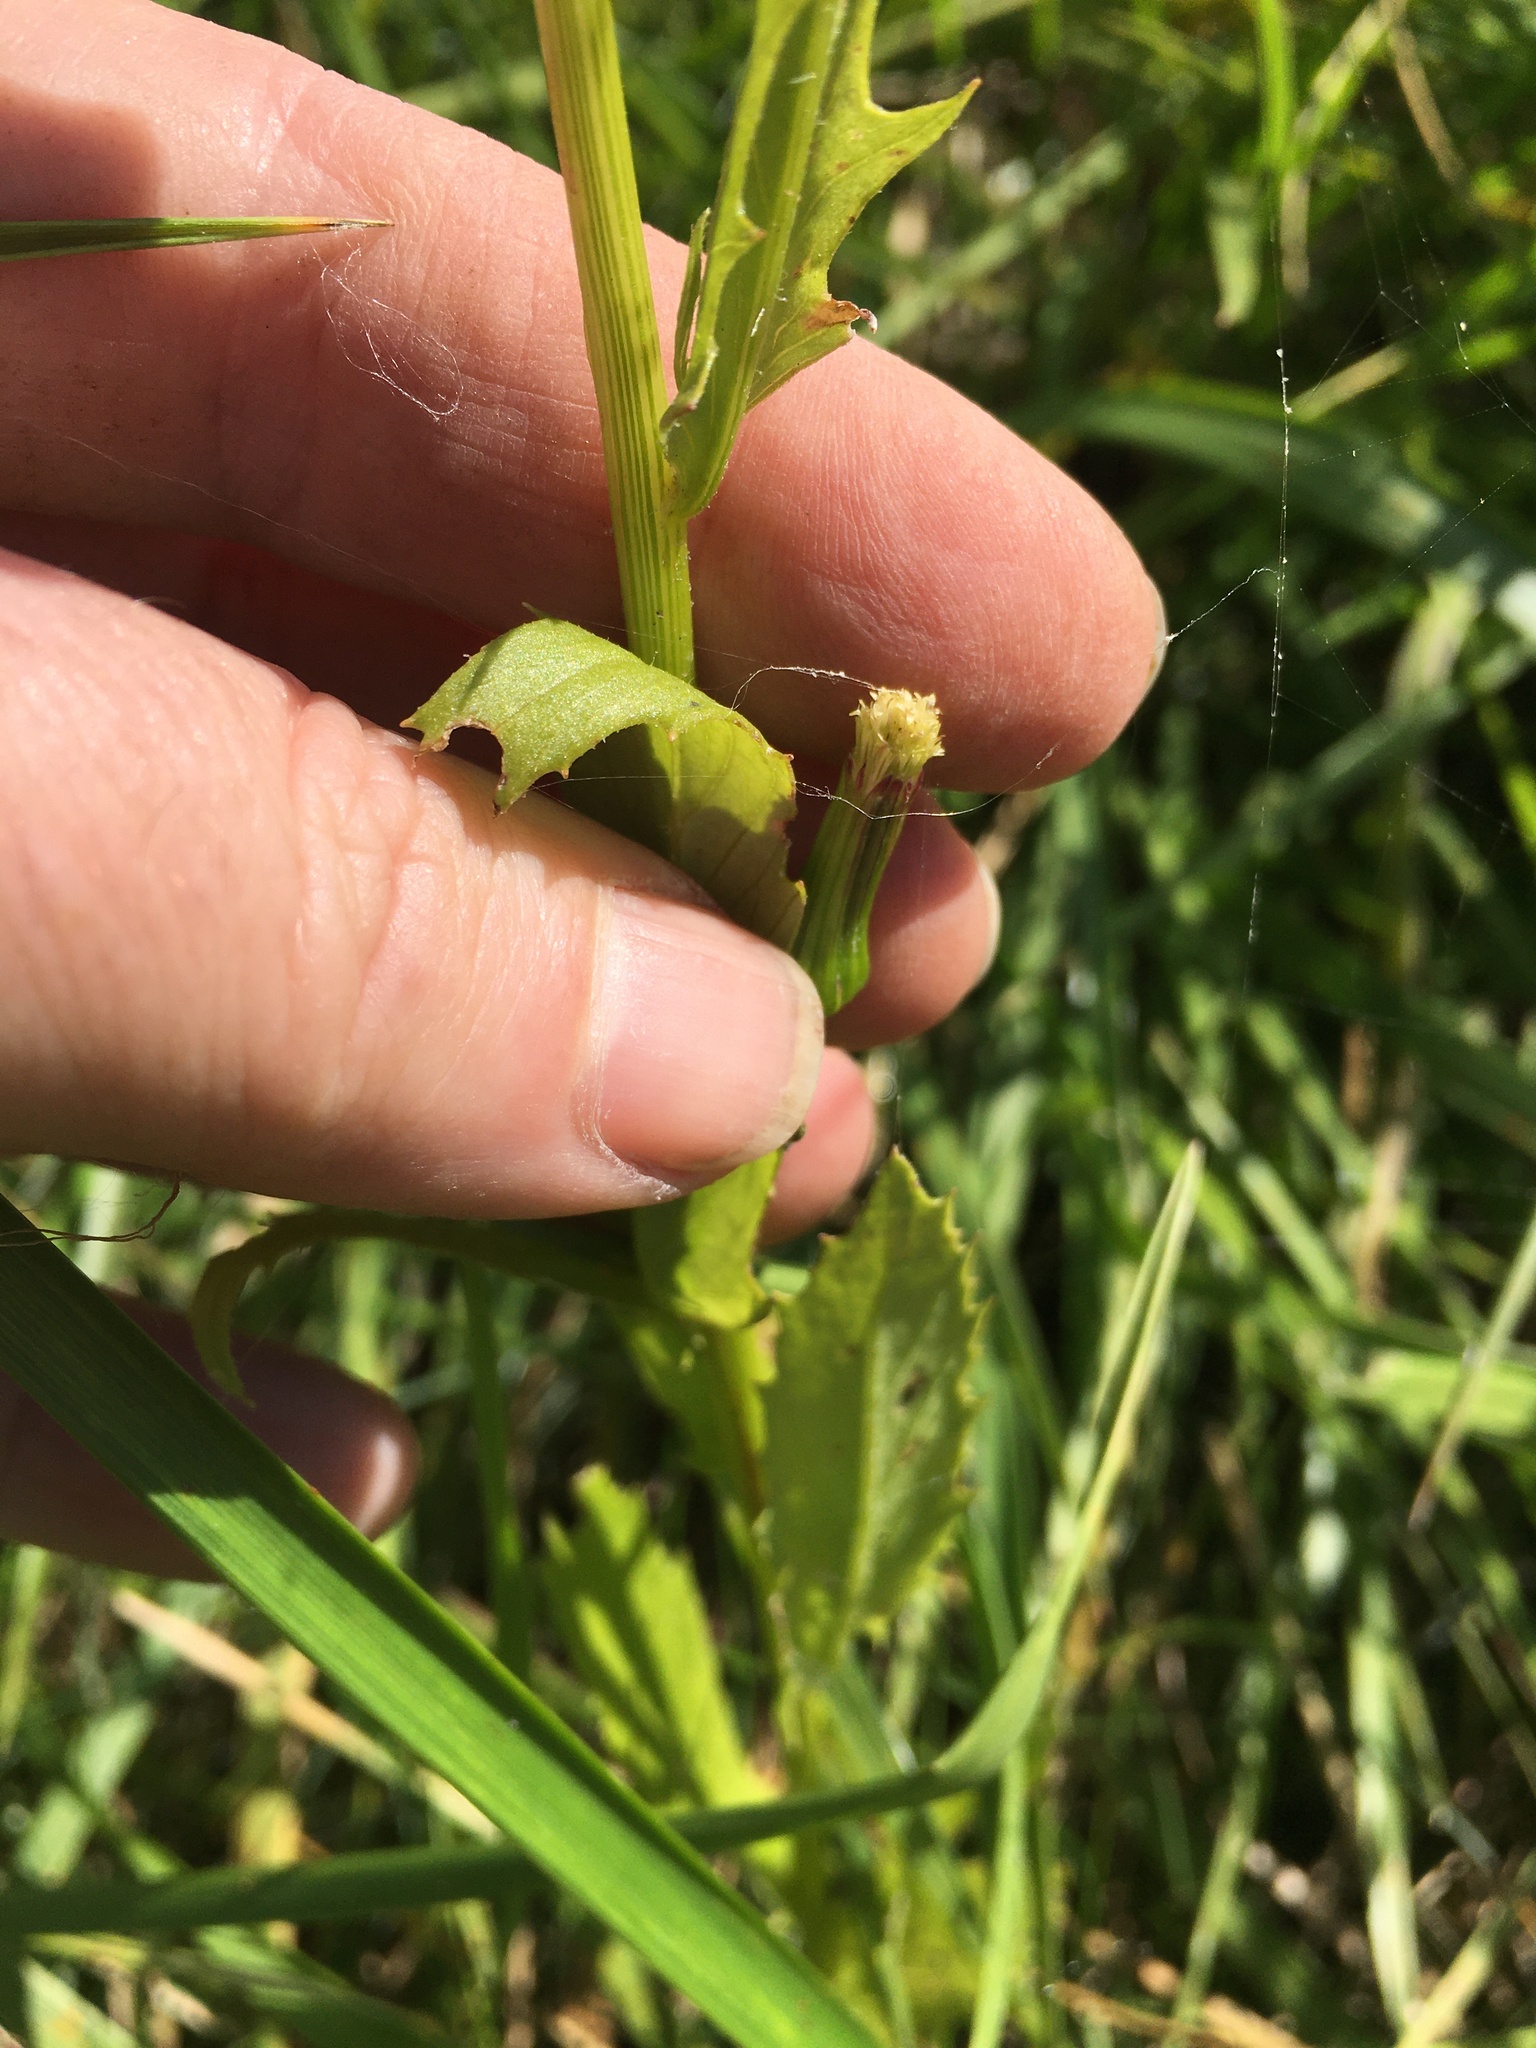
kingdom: Plantae
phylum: Tracheophyta
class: Magnoliopsida
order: Asterales
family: Asteraceae
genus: Erechtites
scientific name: Erechtites hieraciifolius
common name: American burnweed
